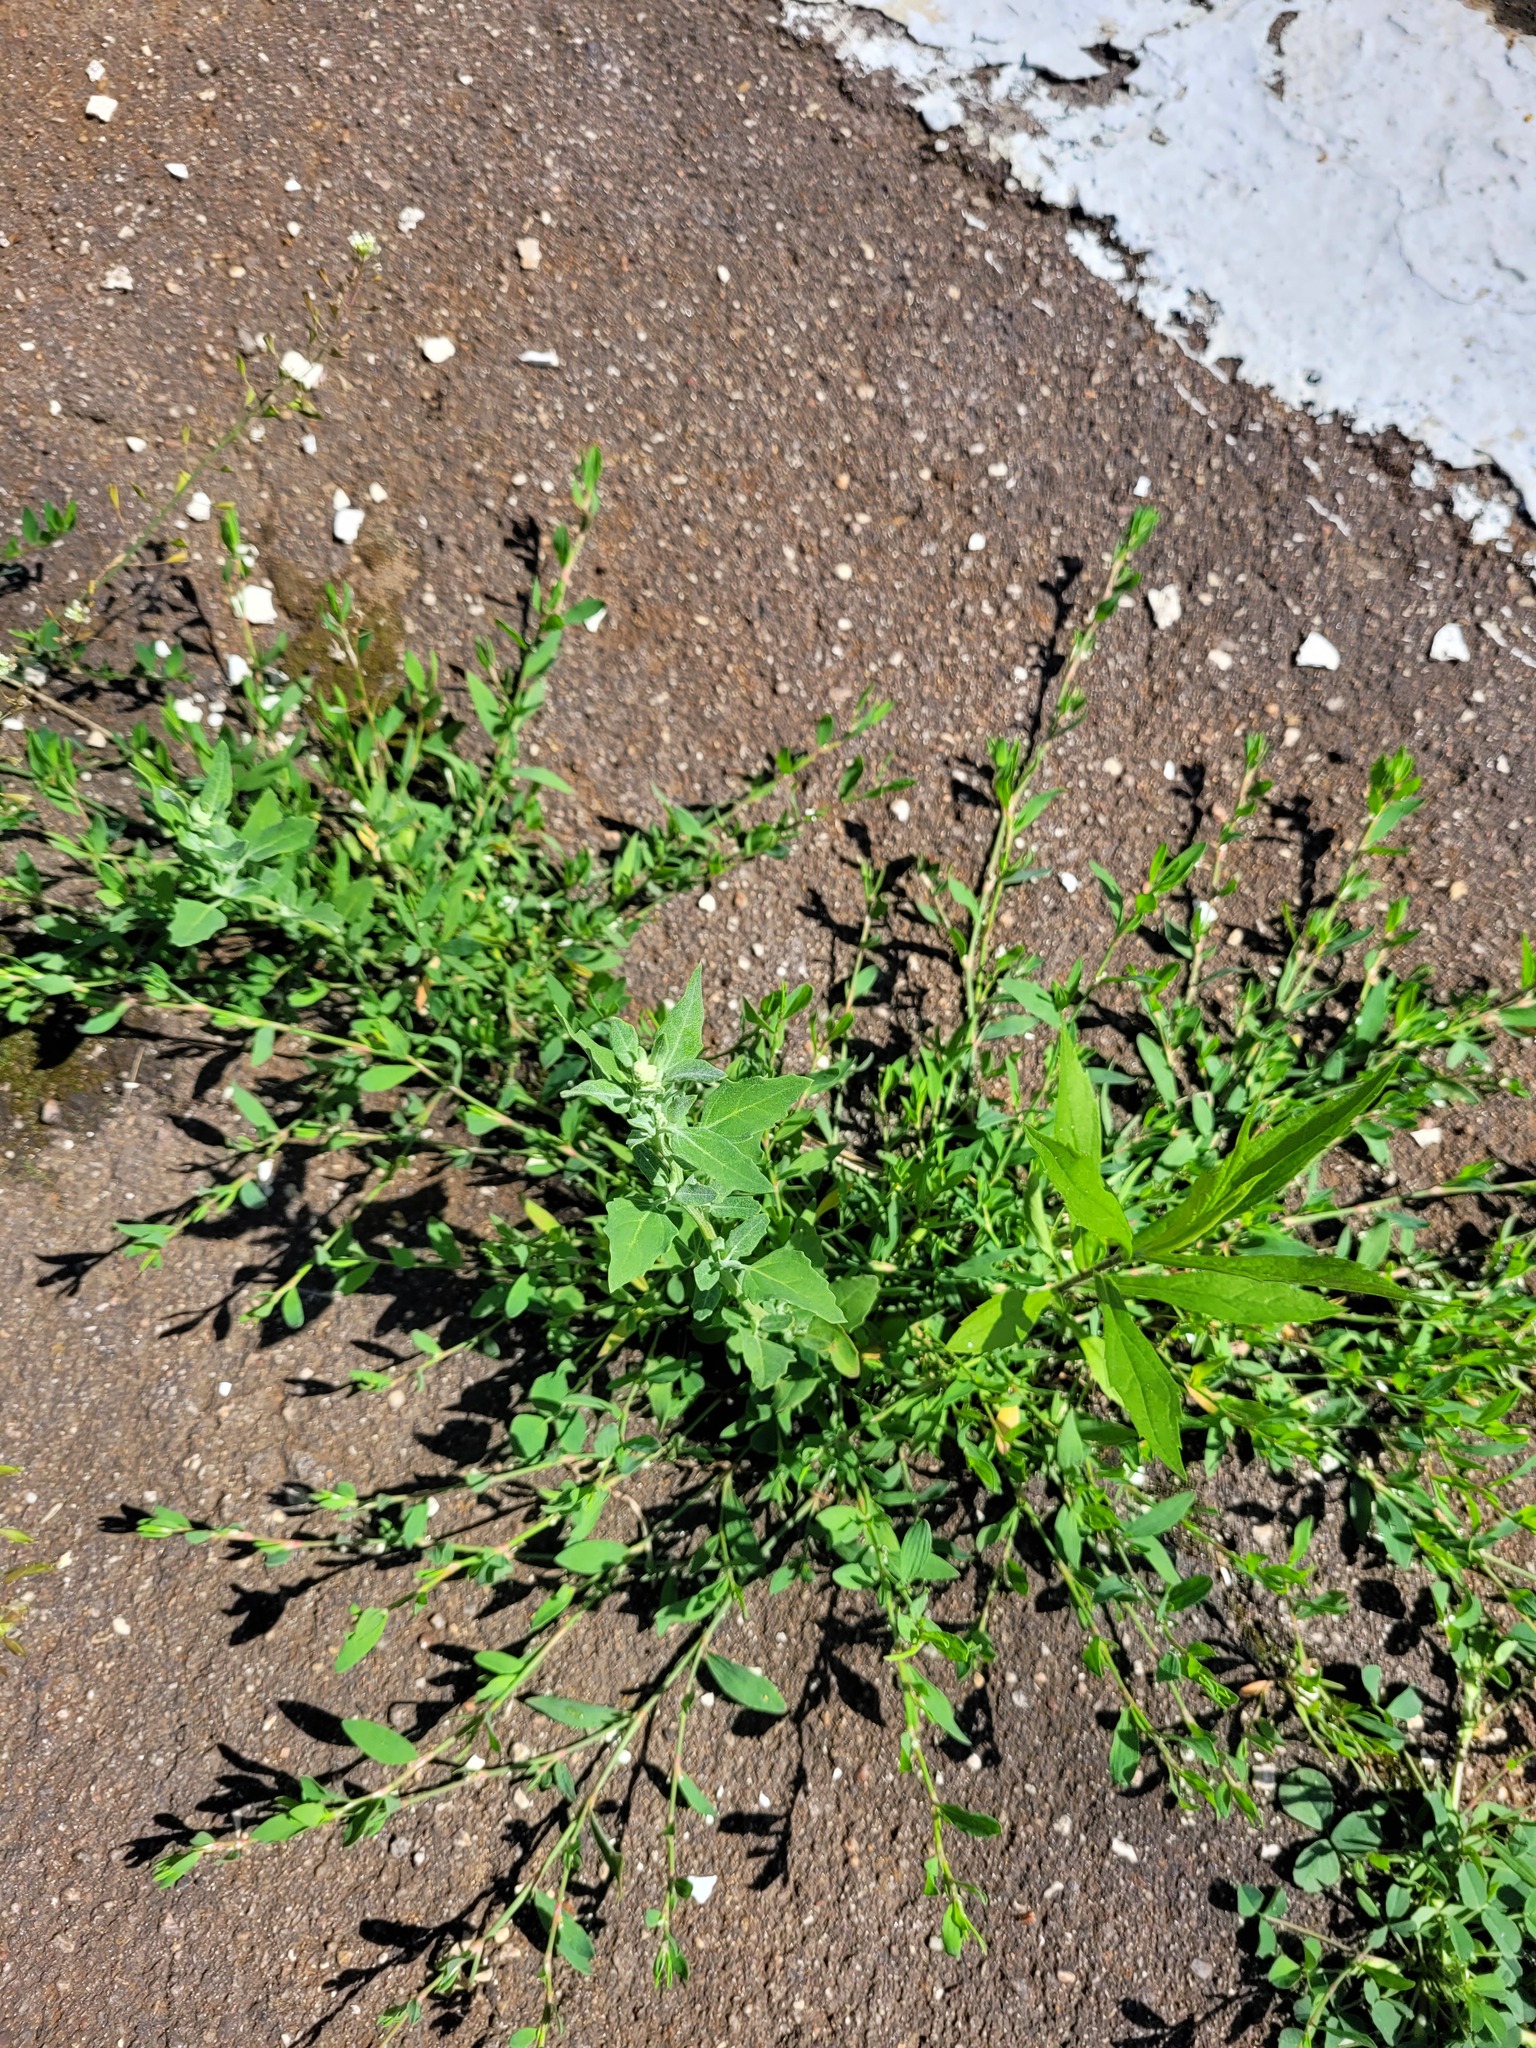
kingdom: Plantae
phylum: Tracheophyta
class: Magnoliopsida
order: Caryophyllales
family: Amaranthaceae
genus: Chenopodium
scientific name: Chenopodium album
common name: Fat-hen
